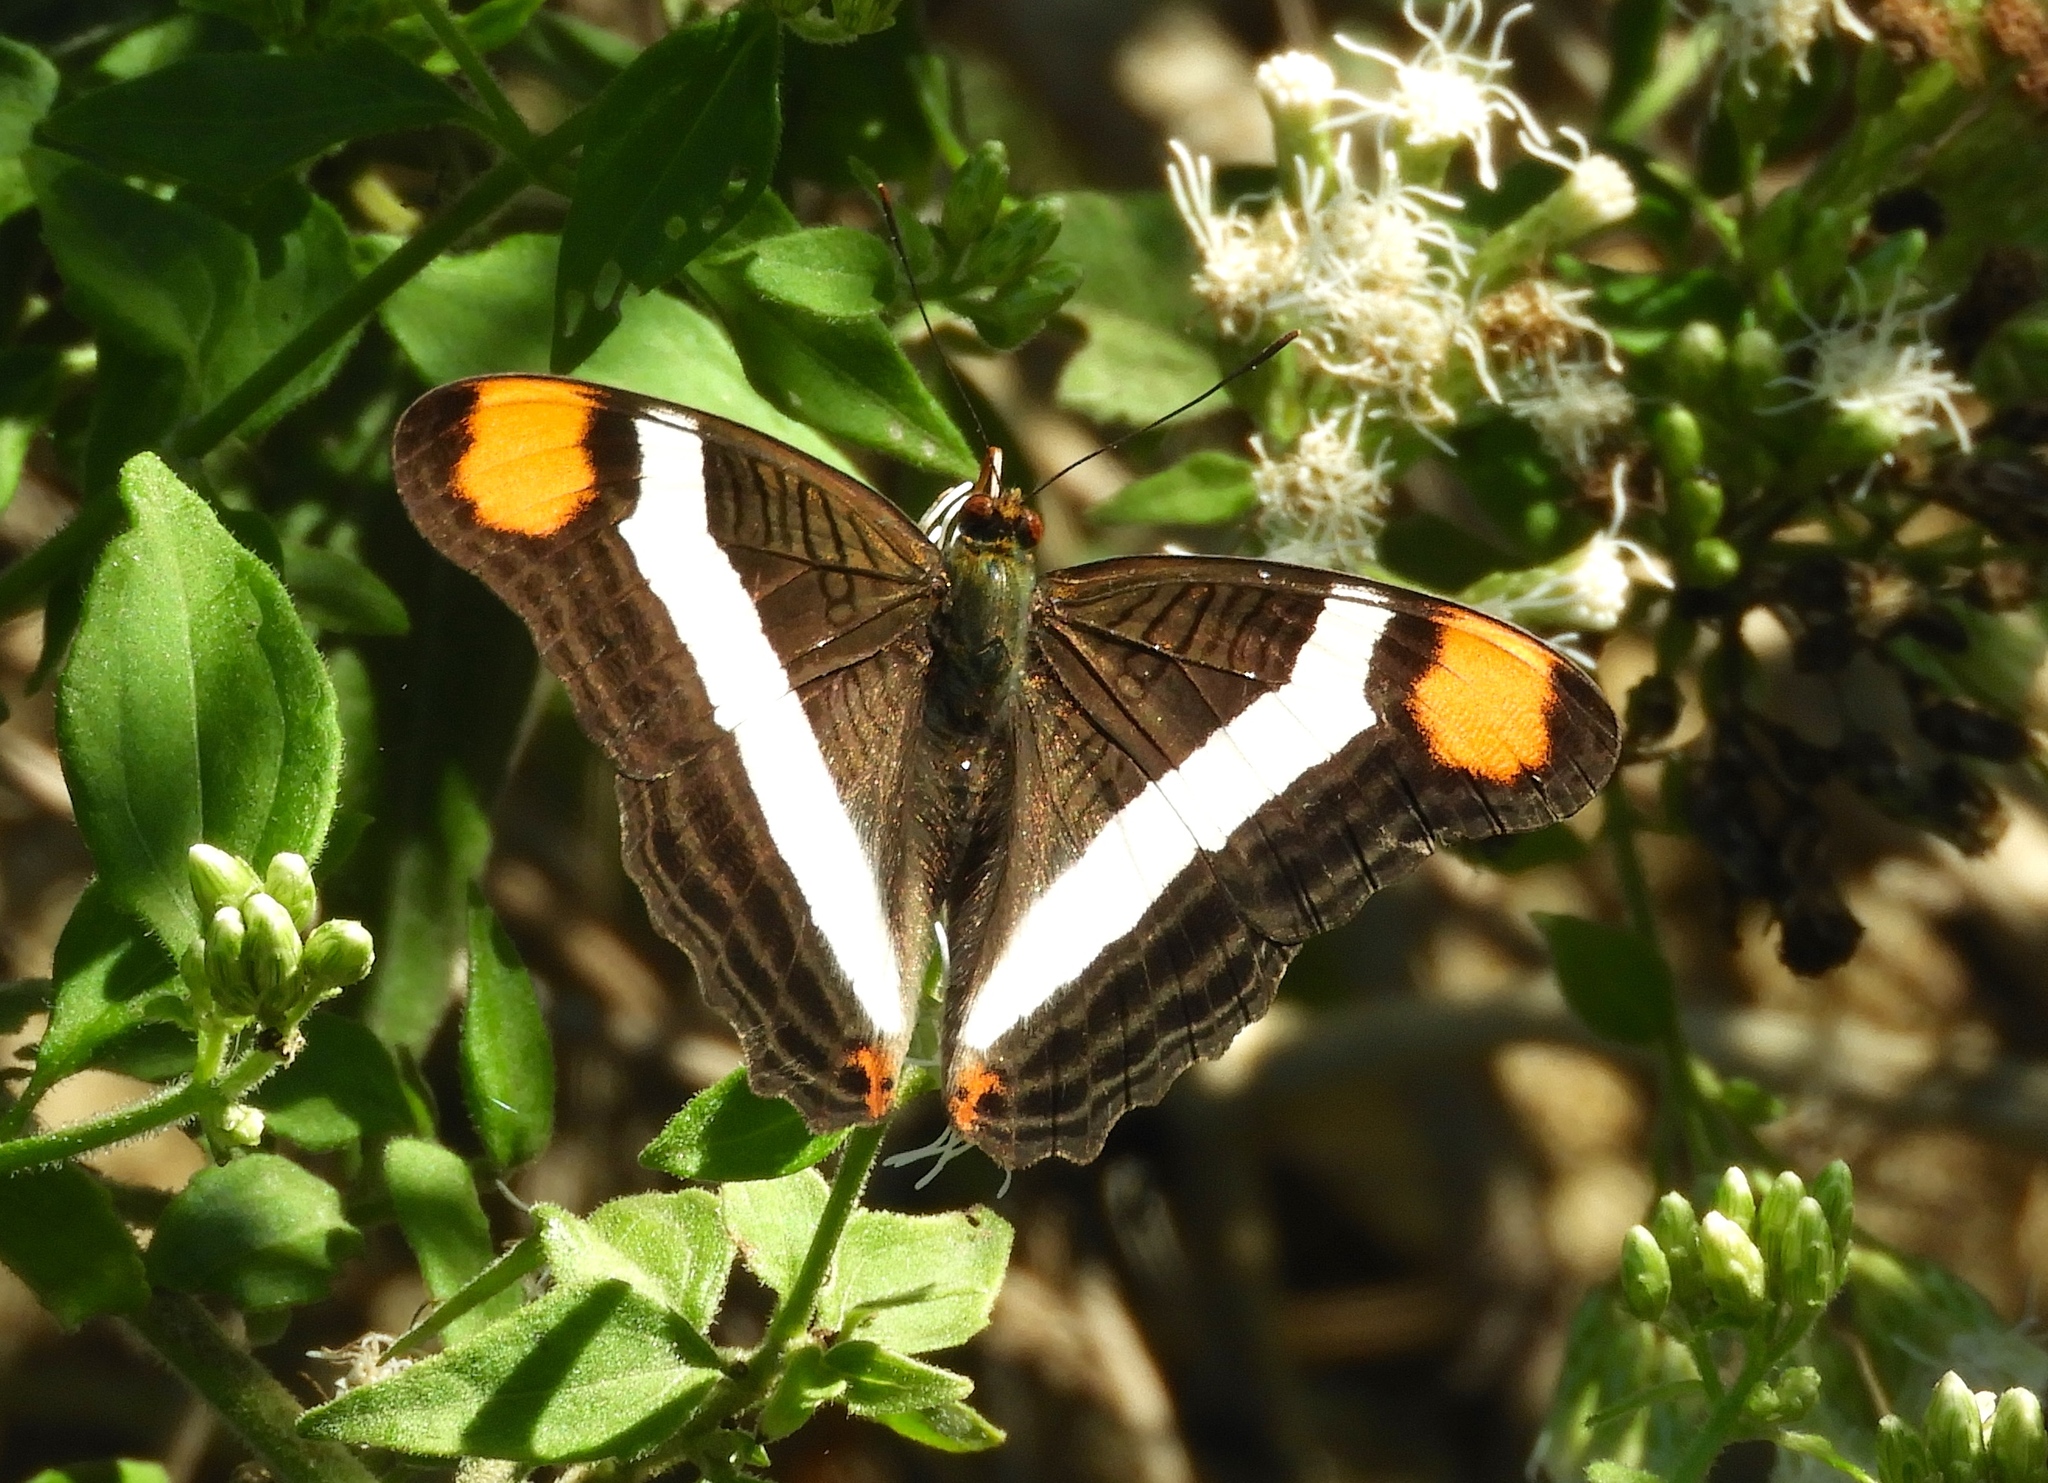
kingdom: Animalia
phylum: Arthropoda
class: Insecta
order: Lepidoptera
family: Nymphalidae
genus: Limenitis
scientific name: Limenitis fessonia
